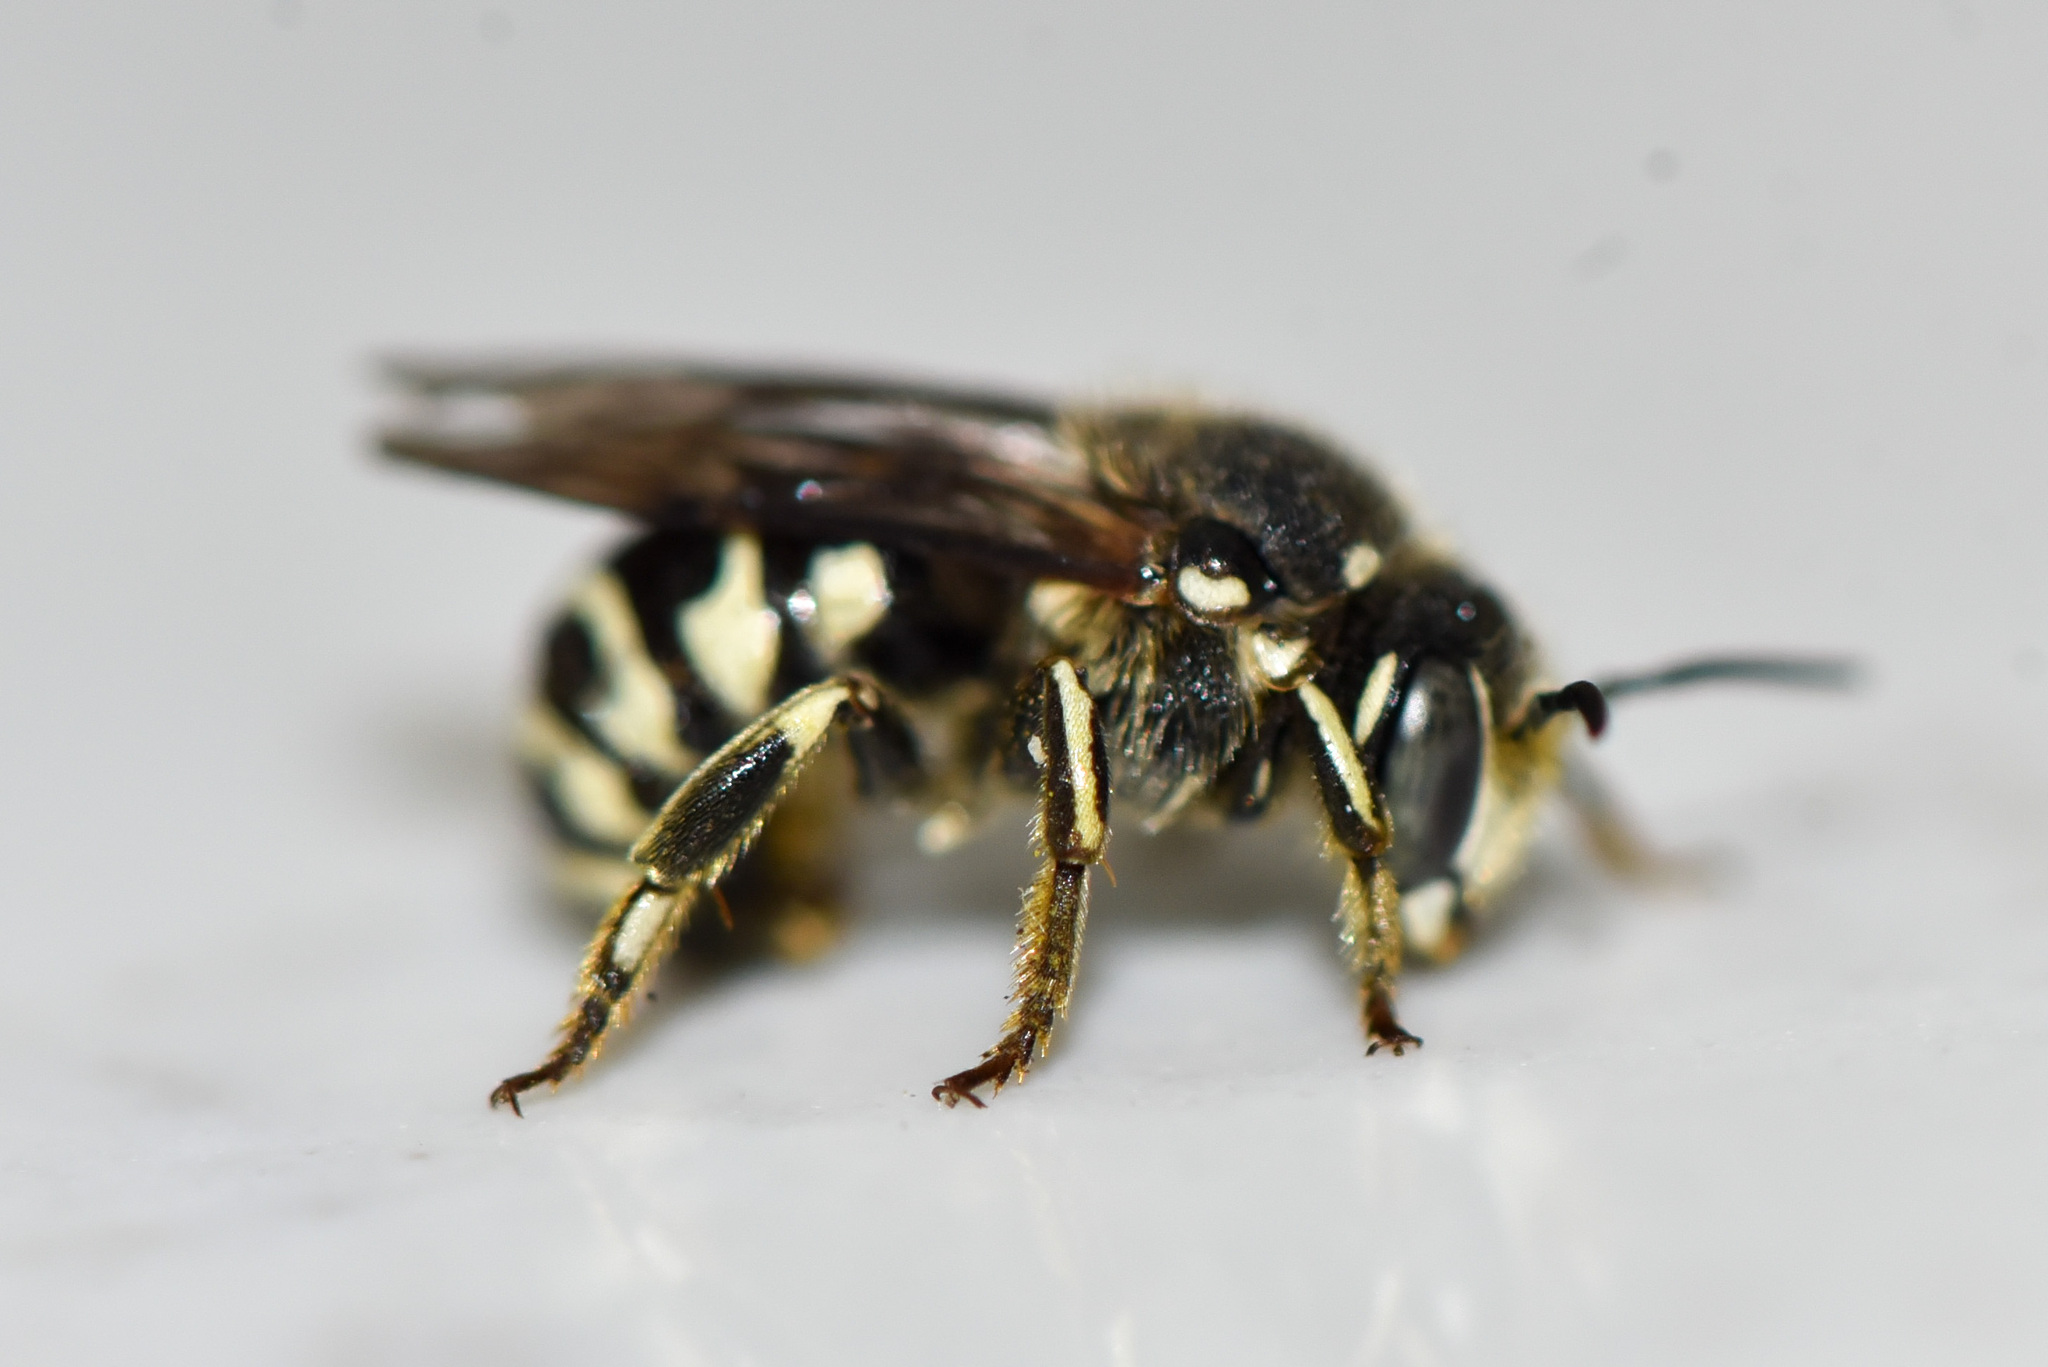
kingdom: Animalia
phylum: Arthropoda
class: Insecta
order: Hymenoptera
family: Megachilidae
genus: Dianthidium
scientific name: Dianthidium subparvum
